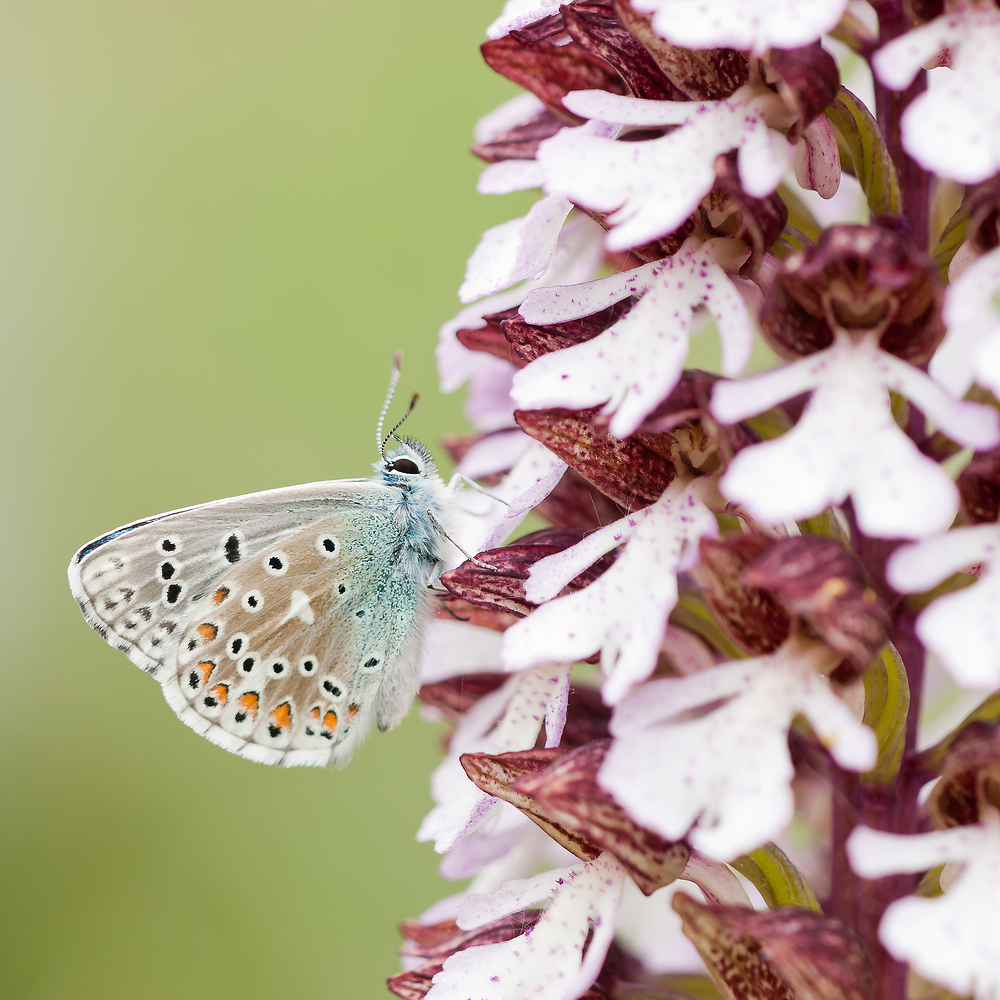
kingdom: Animalia
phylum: Arthropoda
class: Insecta
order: Lepidoptera
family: Lycaenidae
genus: Lysandra
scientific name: Lysandra bellargus
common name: Adonis blue
